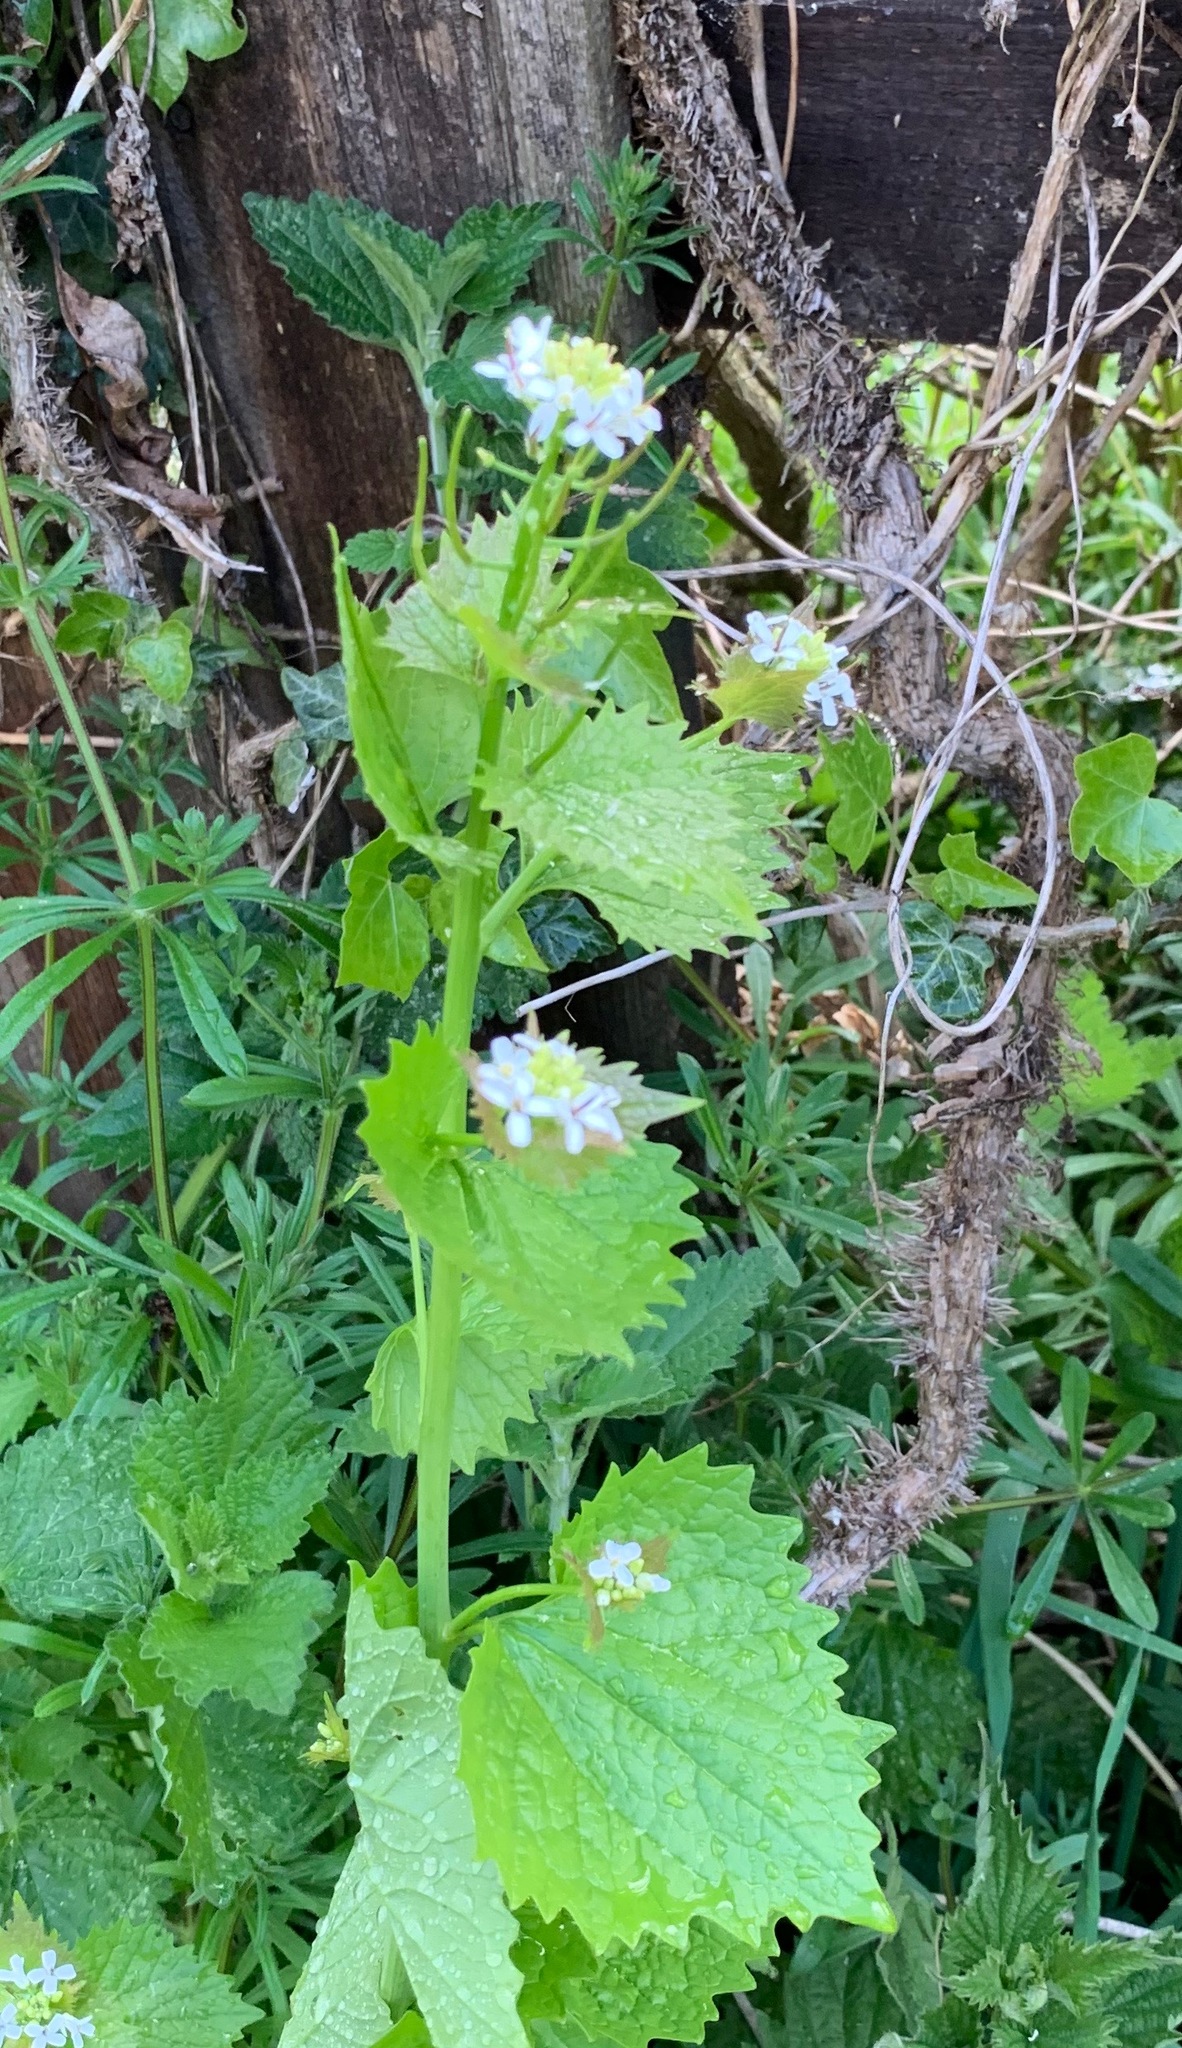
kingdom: Plantae
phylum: Tracheophyta
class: Magnoliopsida
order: Brassicales
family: Brassicaceae
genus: Alliaria
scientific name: Alliaria petiolata
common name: Garlic mustard
